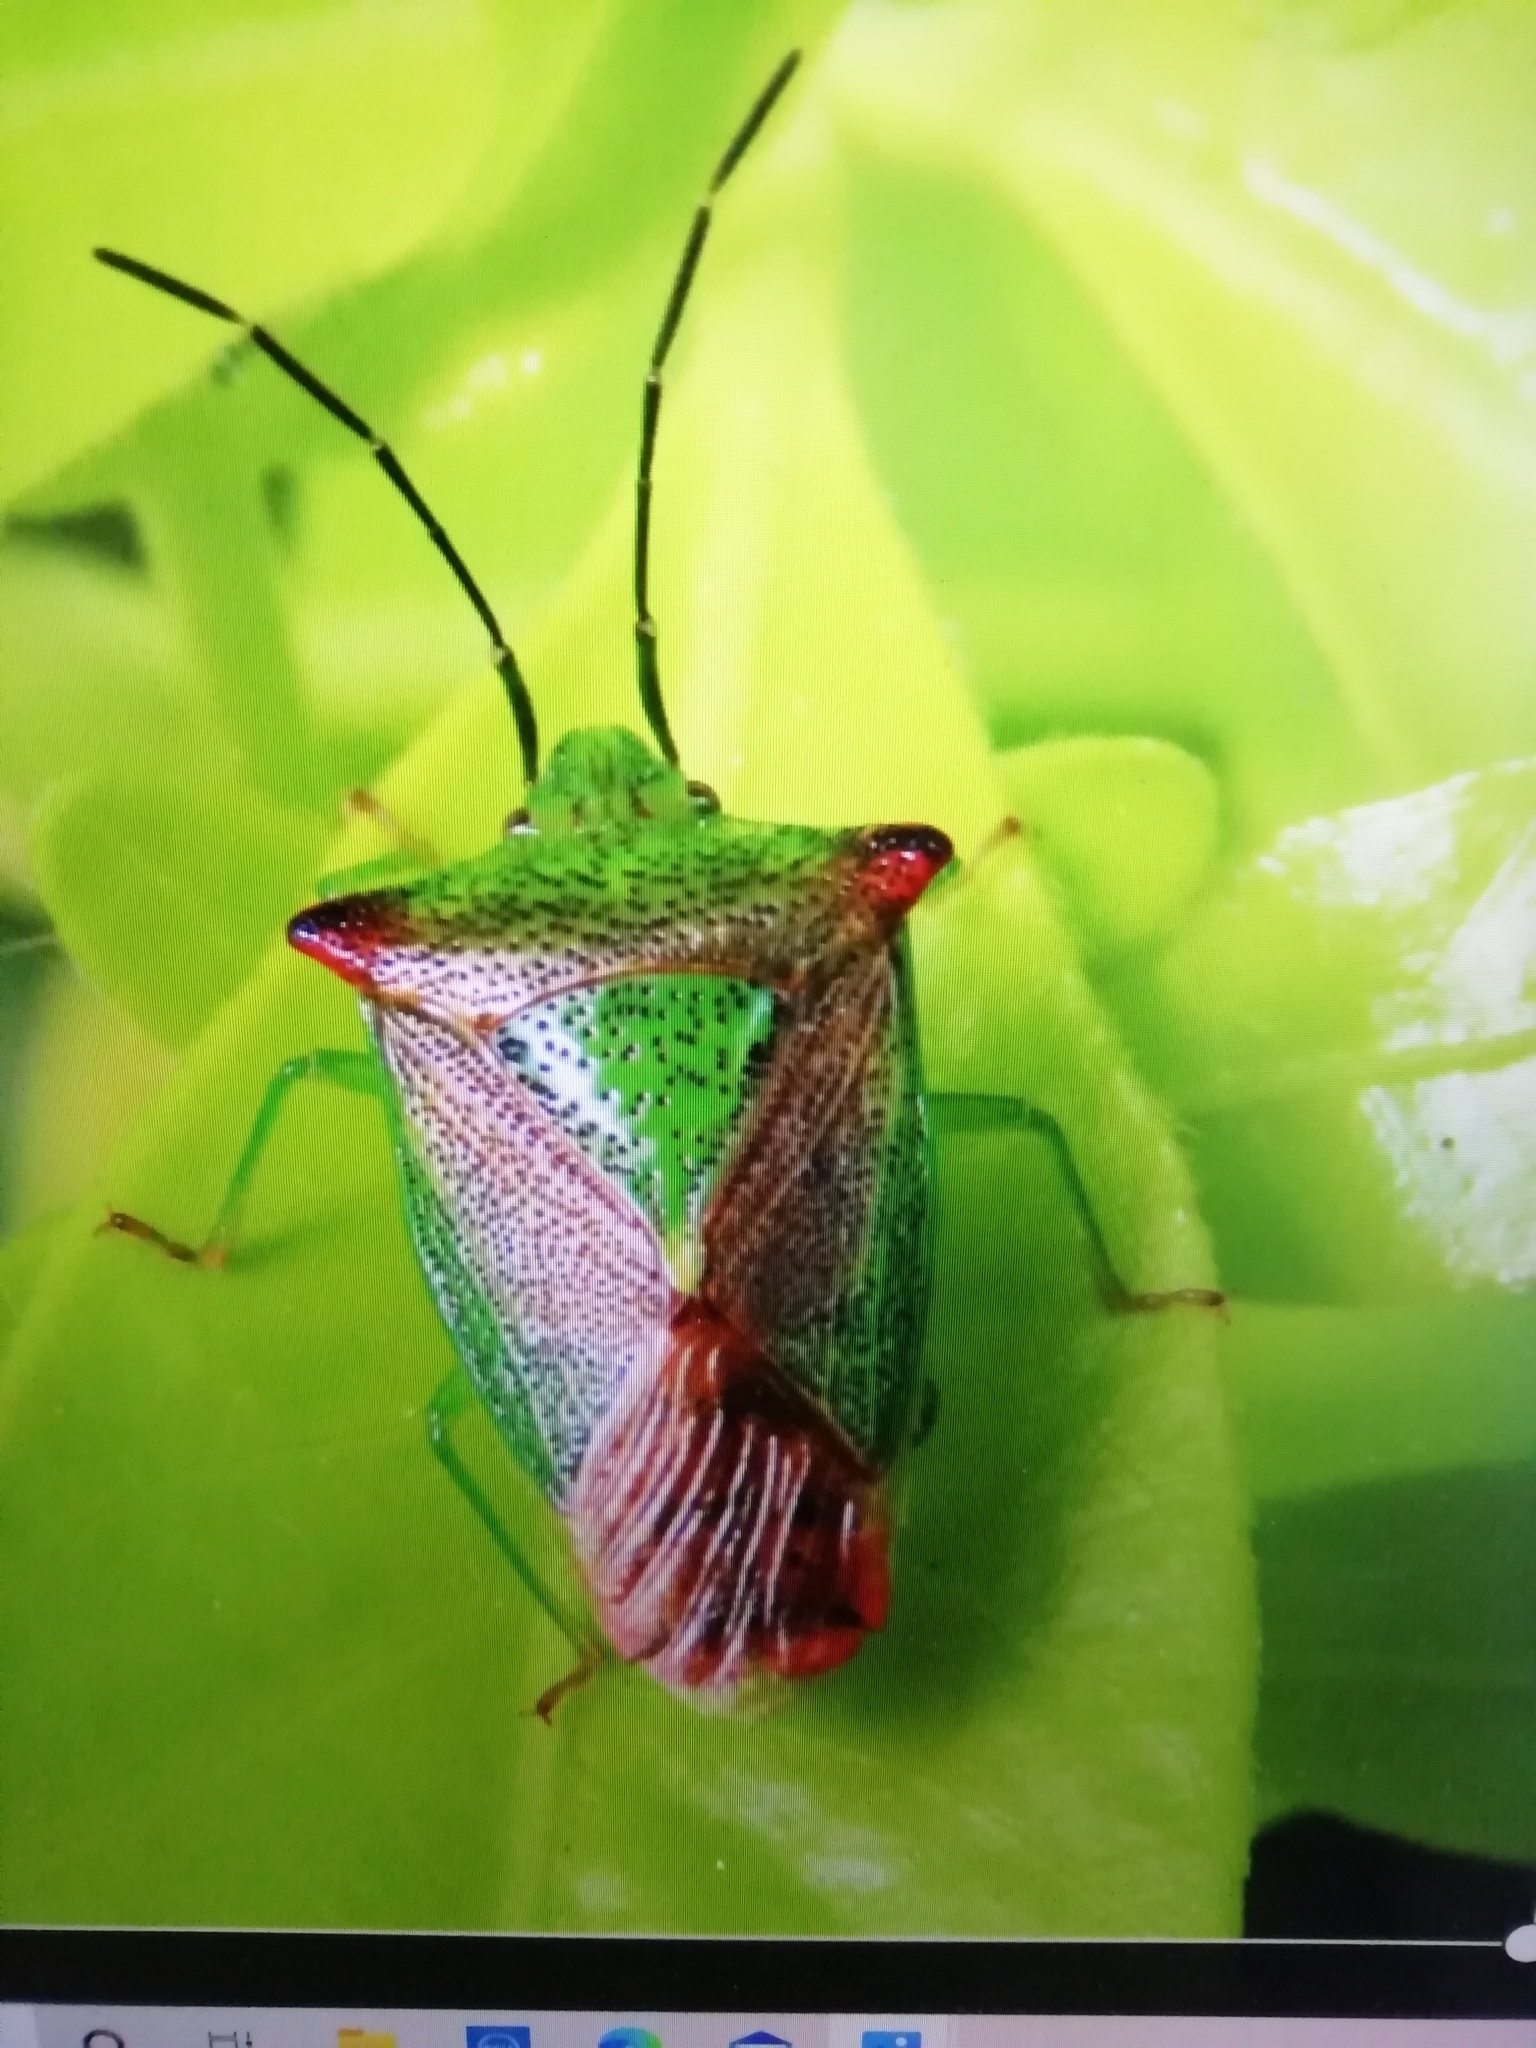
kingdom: Animalia
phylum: Arthropoda
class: Insecta
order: Hemiptera
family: Acanthosomatidae
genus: Acanthosoma
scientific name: Acanthosoma haemorrhoidale
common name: Hawthorn shieldbug
